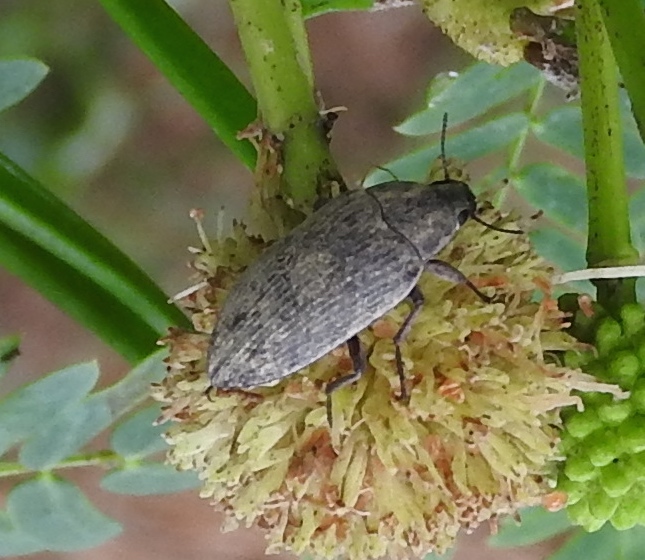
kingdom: Animalia
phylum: Arthropoda
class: Insecta
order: Coleoptera
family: Tenebrionidae
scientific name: Tenebrionidae
